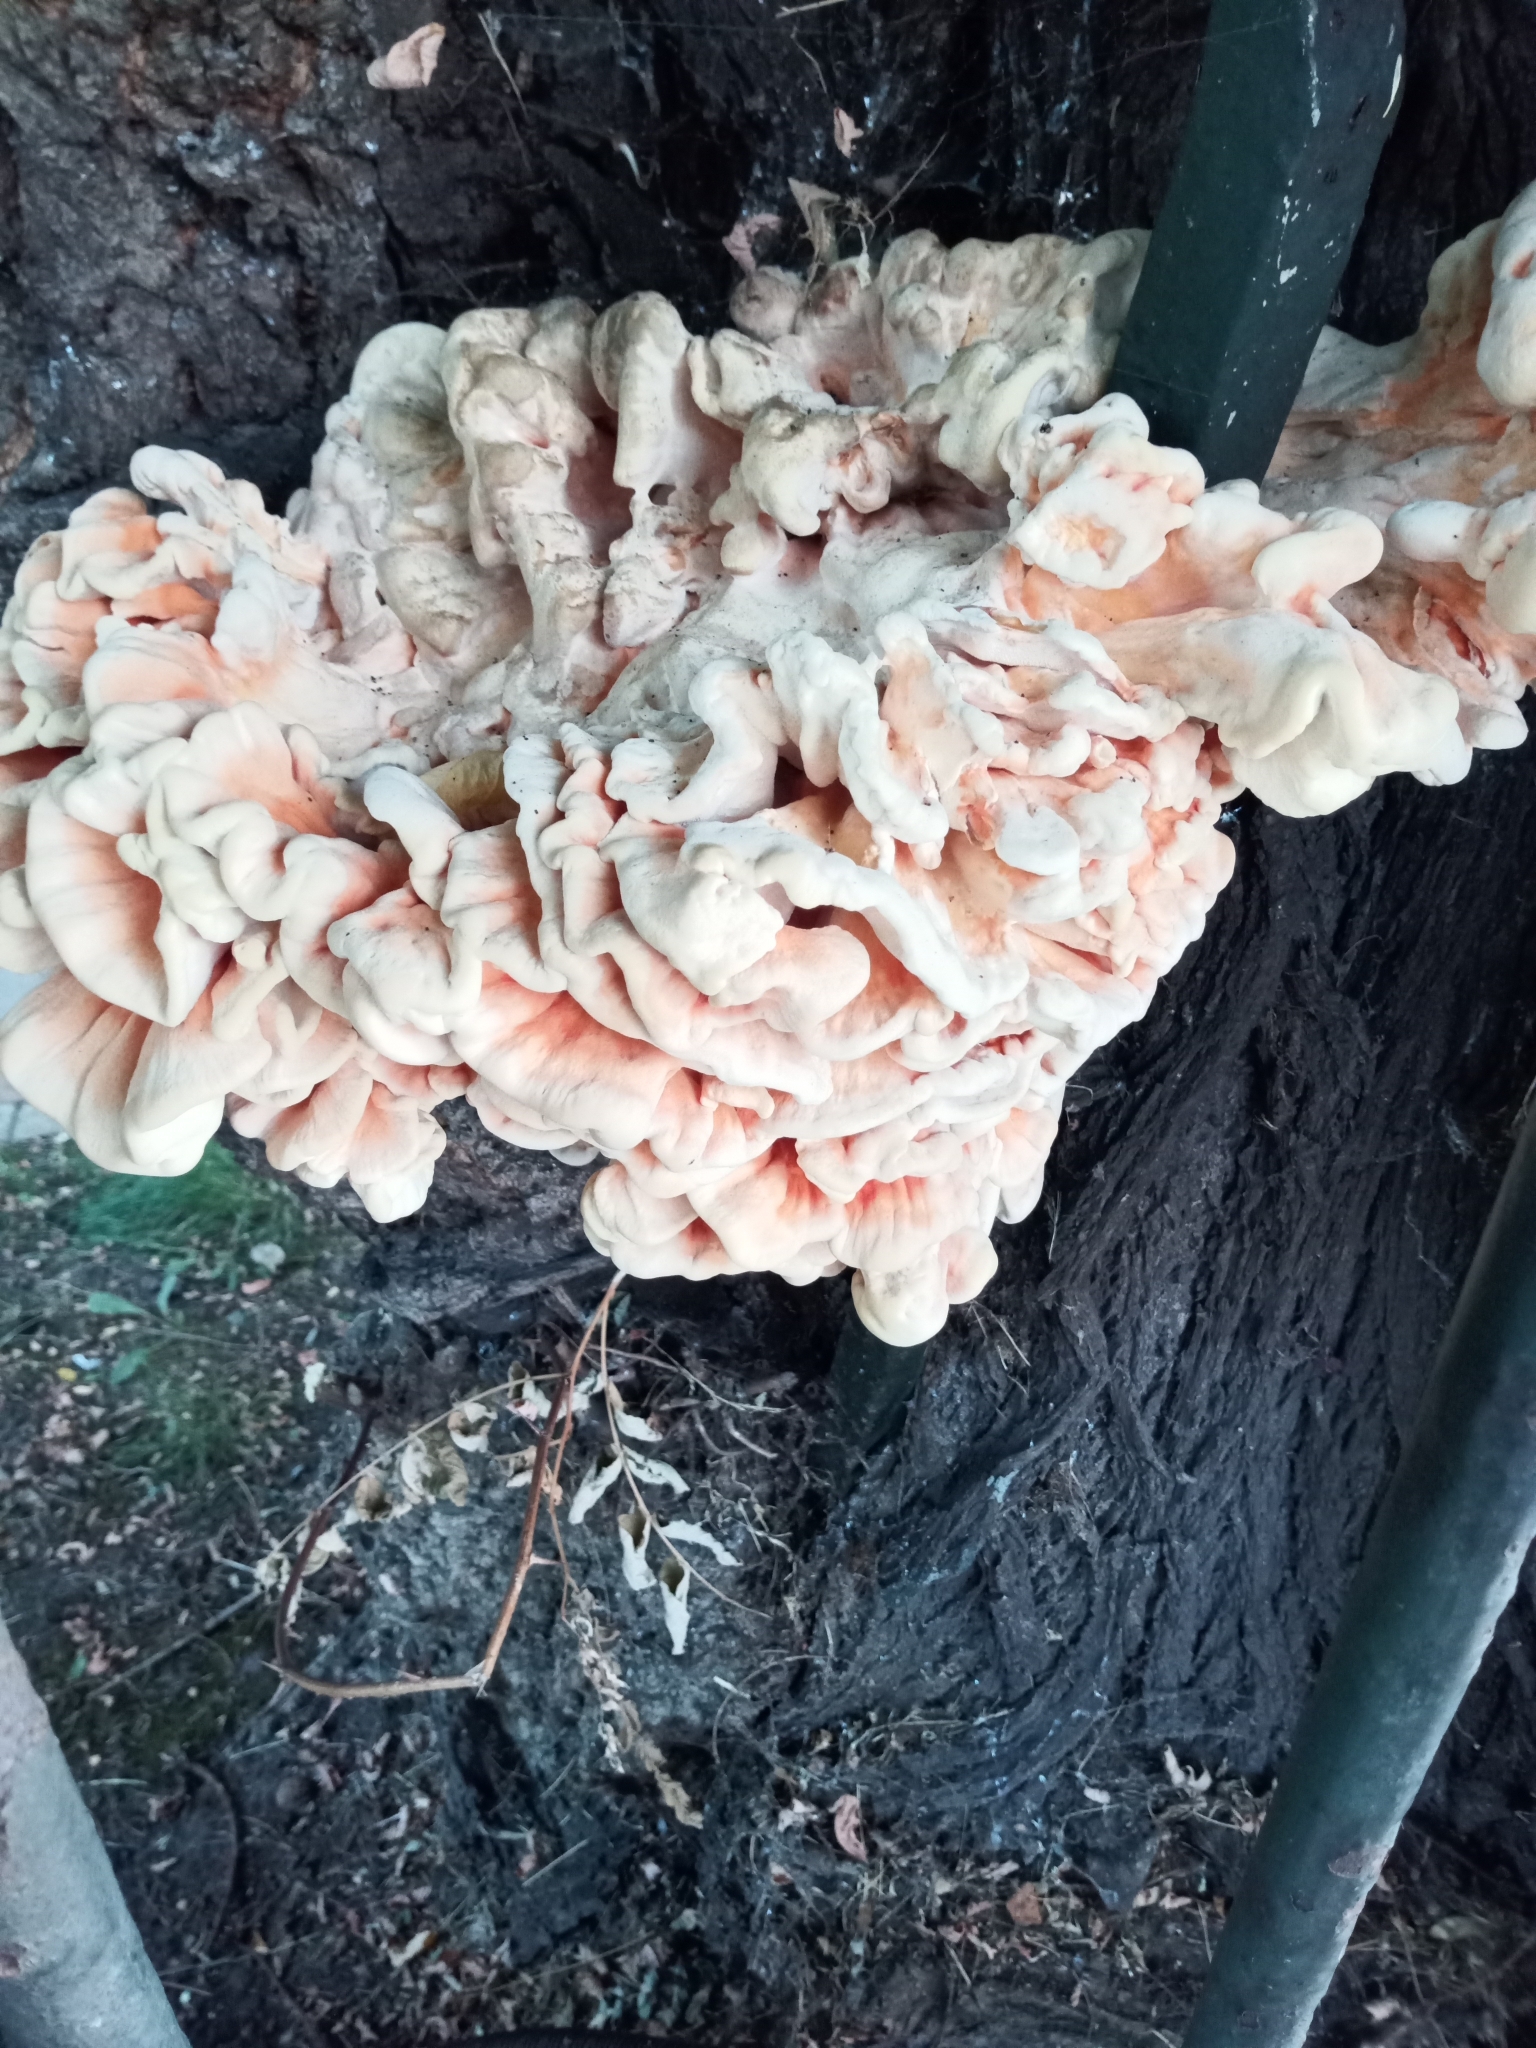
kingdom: Fungi
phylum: Basidiomycota
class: Agaricomycetes
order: Polyporales
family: Laetiporaceae
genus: Laetiporus
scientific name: Laetiporus sulphureus
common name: Chicken of the woods
